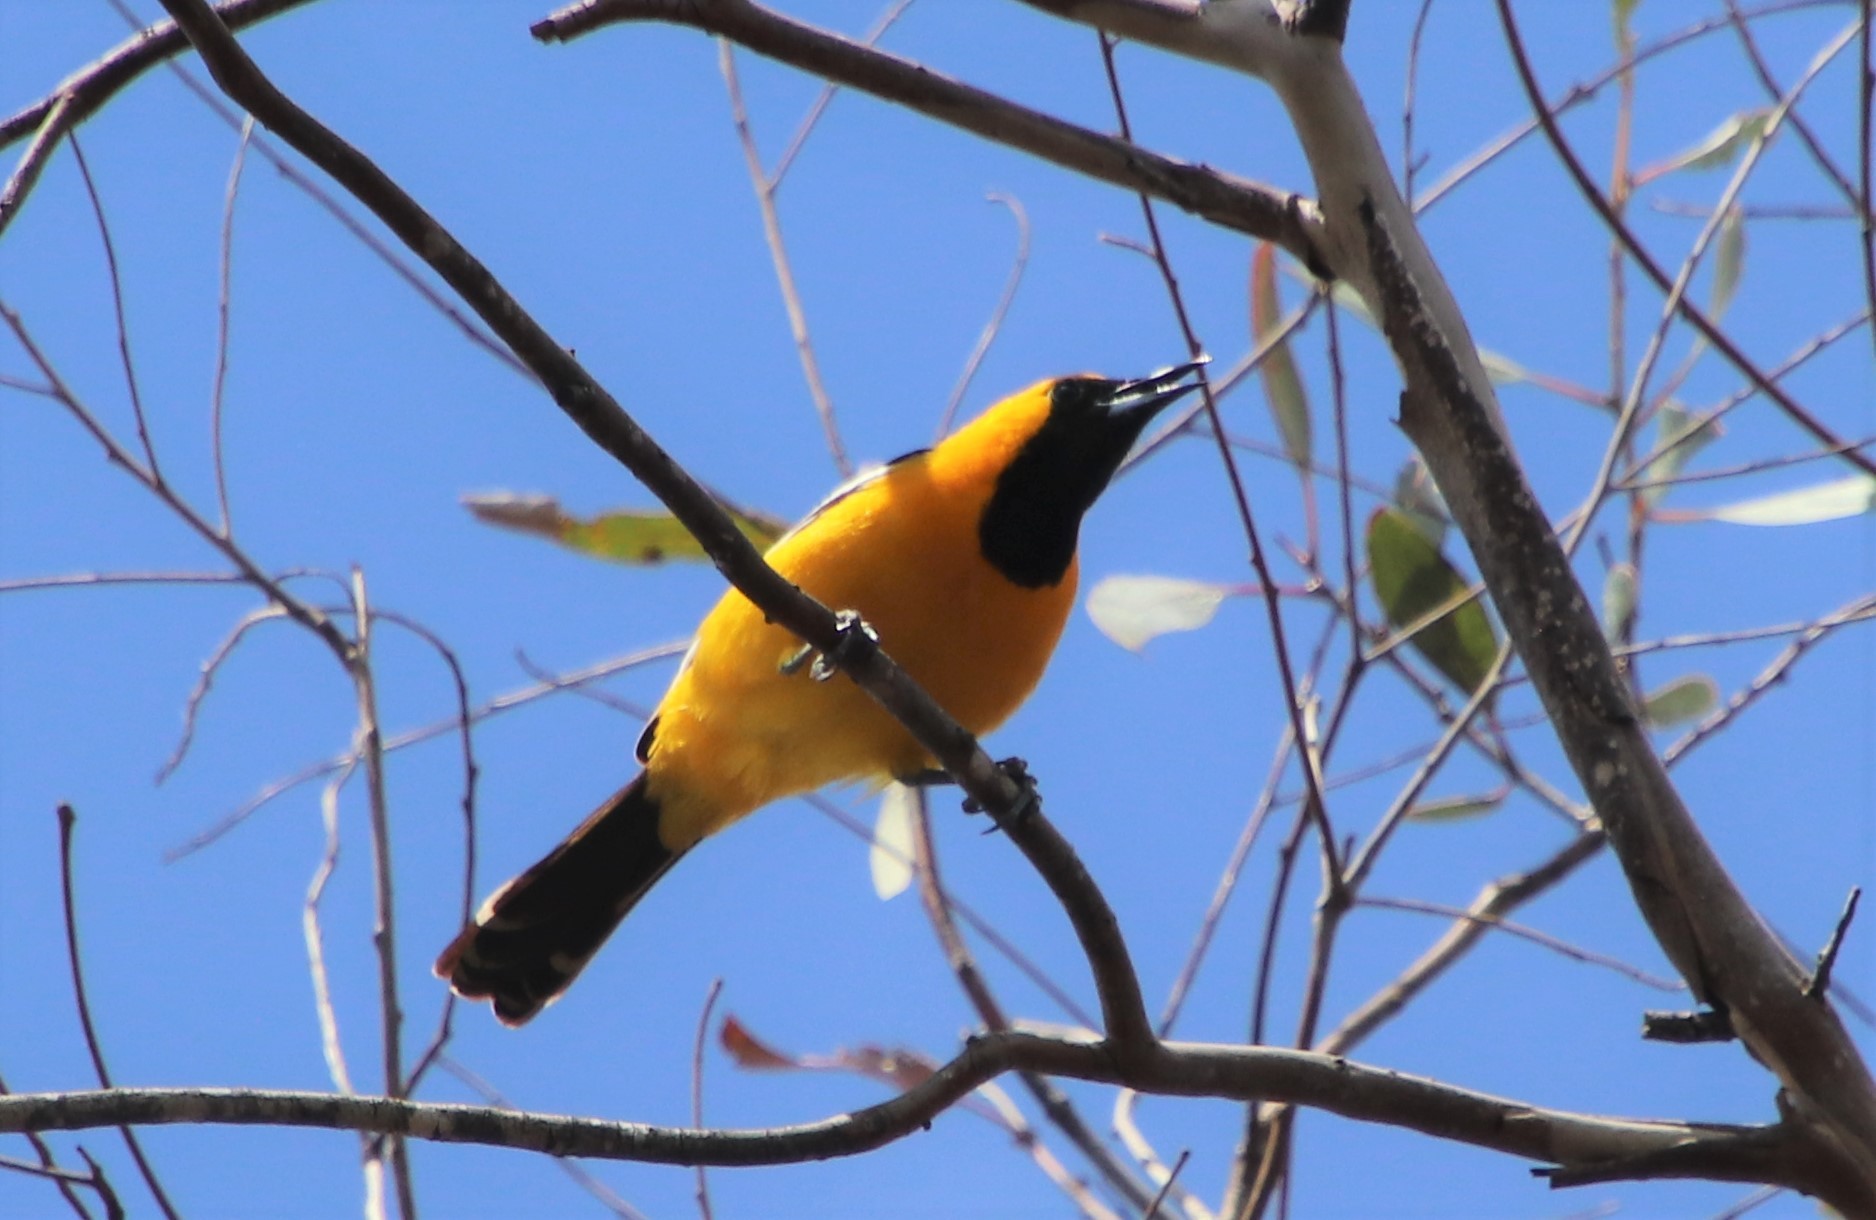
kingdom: Animalia
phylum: Chordata
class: Aves
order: Passeriformes
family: Icteridae
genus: Icterus
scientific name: Icterus cucullatus
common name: Hooded oriole
